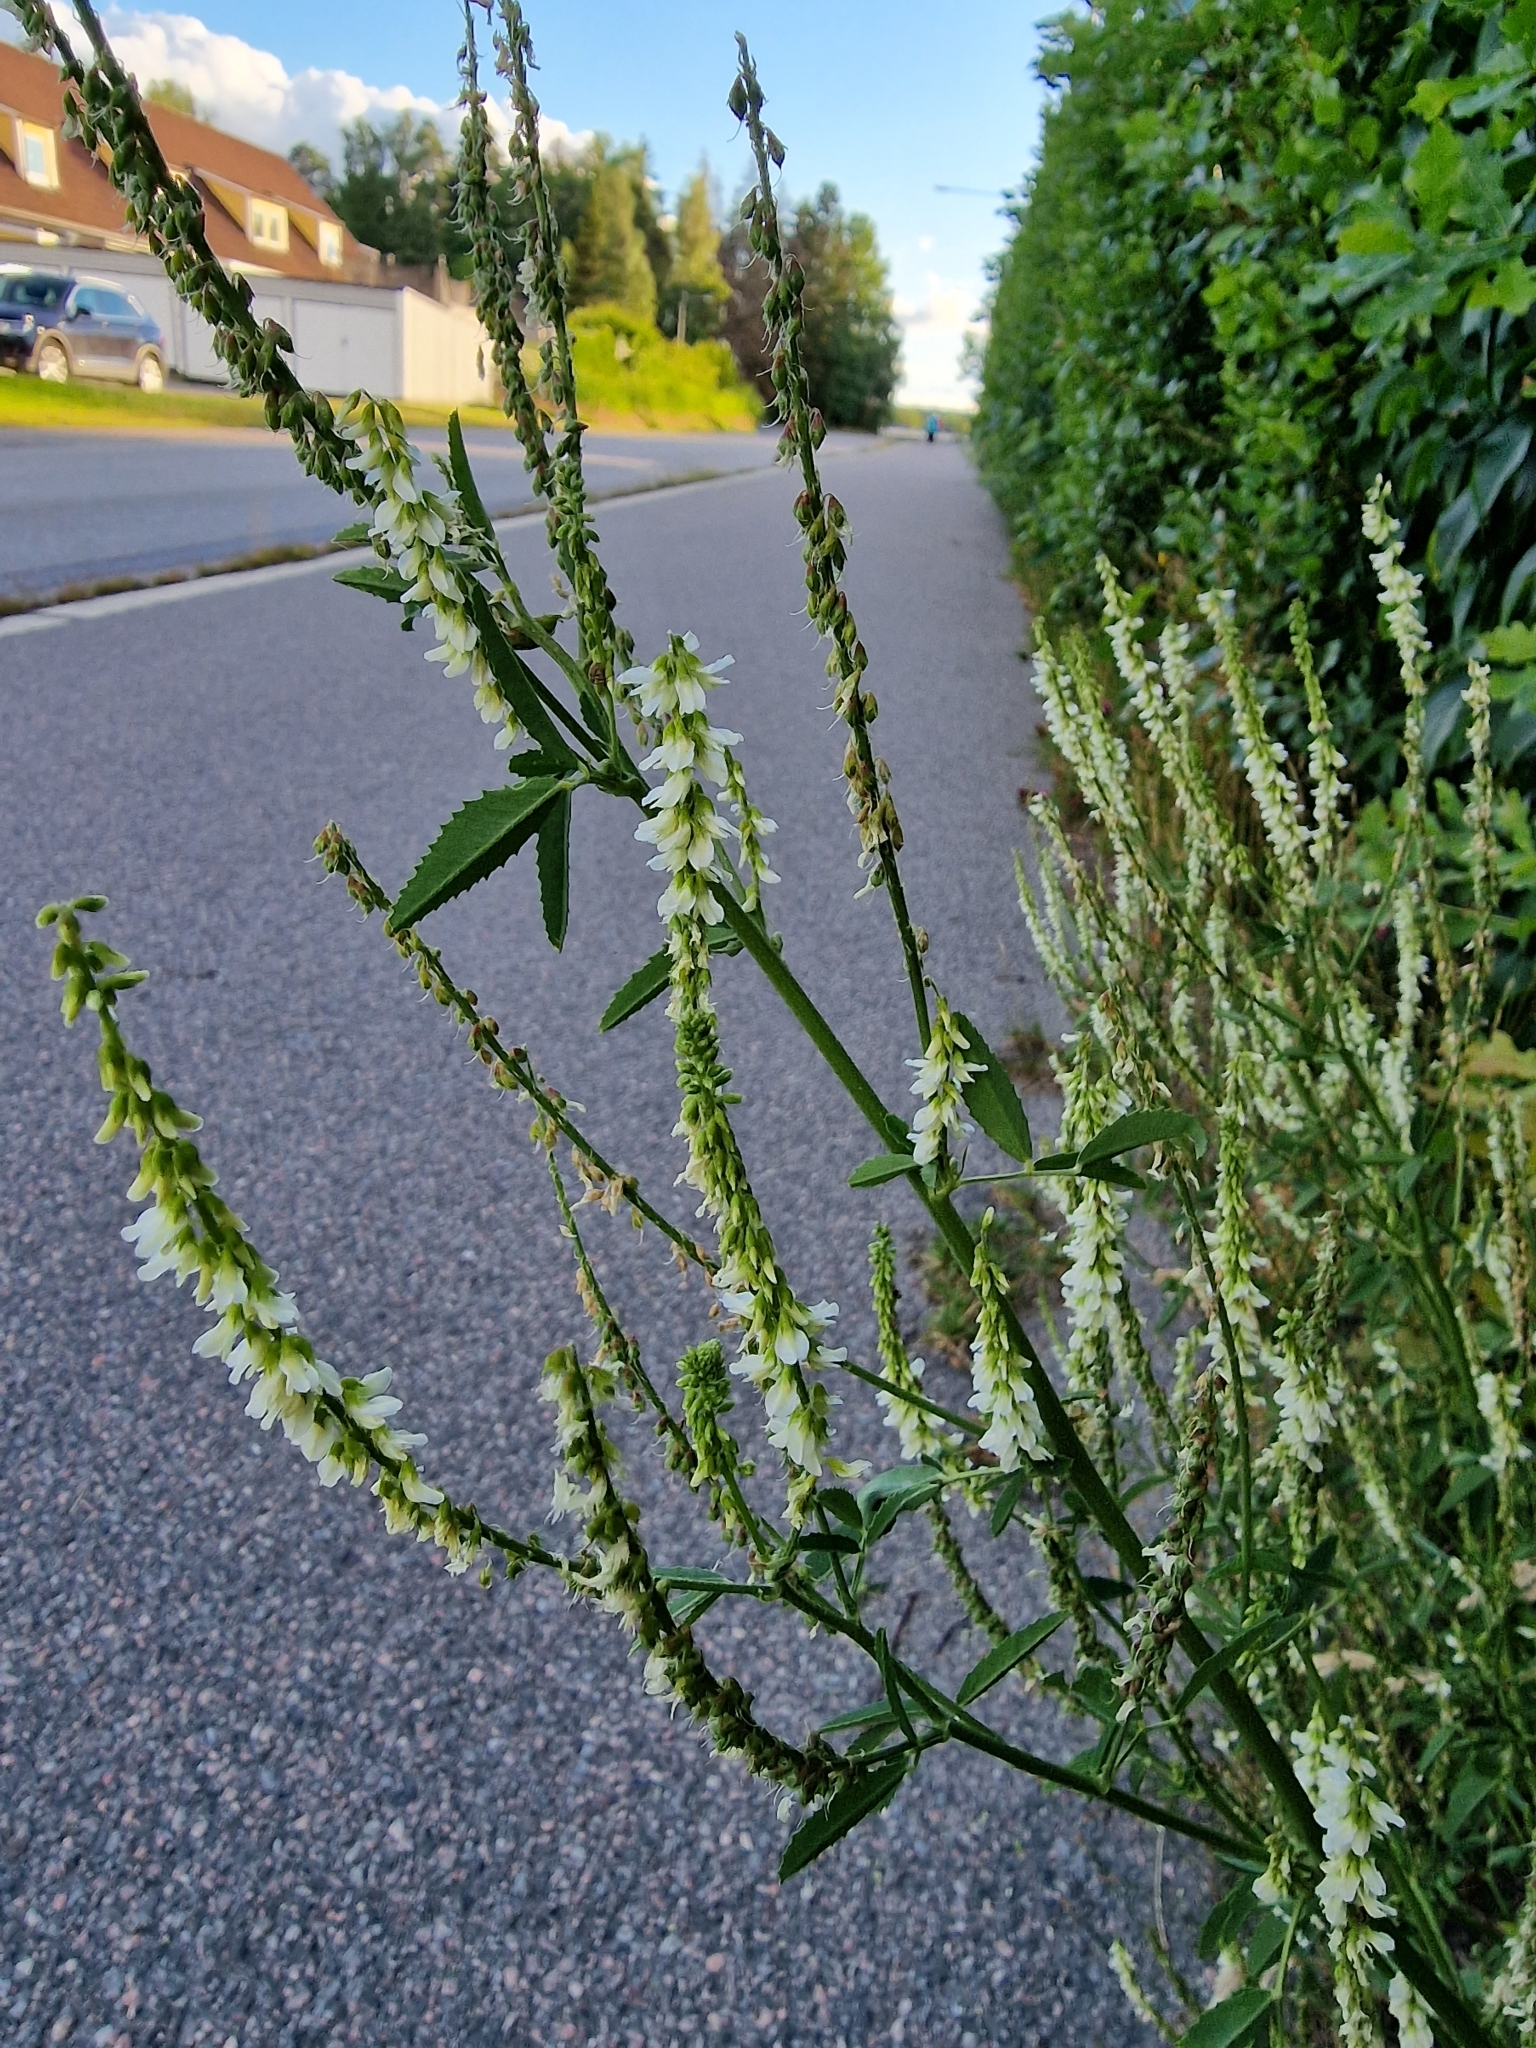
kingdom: Plantae
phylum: Tracheophyta
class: Magnoliopsida
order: Fabales
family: Fabaceae
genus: Melilotus
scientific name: Melilotus albus
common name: White melilot
